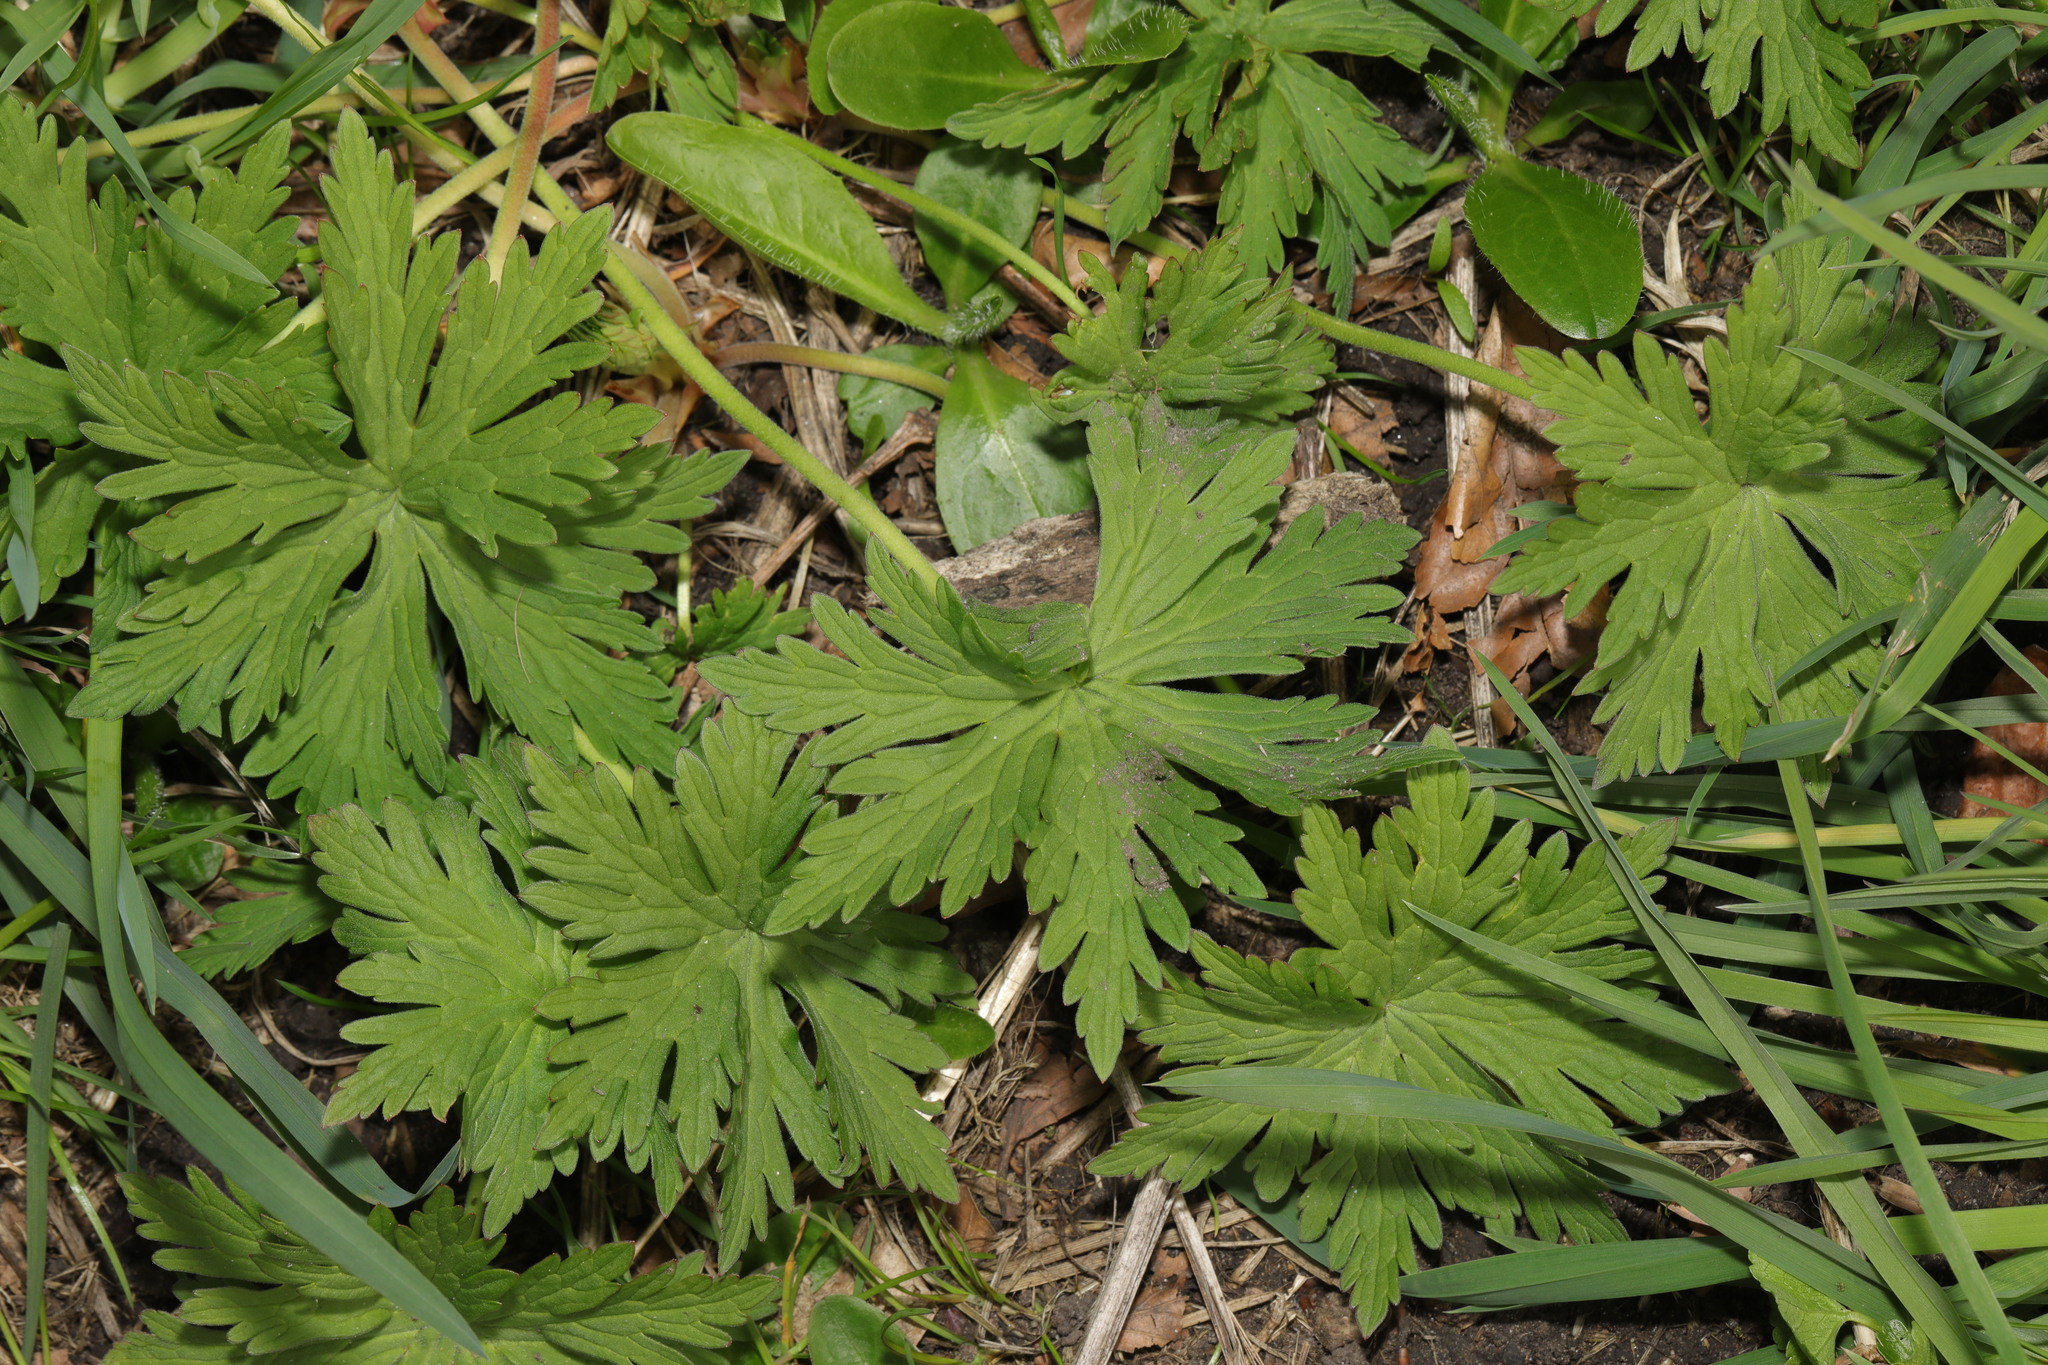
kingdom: Plantae
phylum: Tracheophyta
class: Magnoliopsida
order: Geraniales
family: Geraniaceae
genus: Geranium
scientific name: Geranium pratense
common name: Meadow crane's-bill
